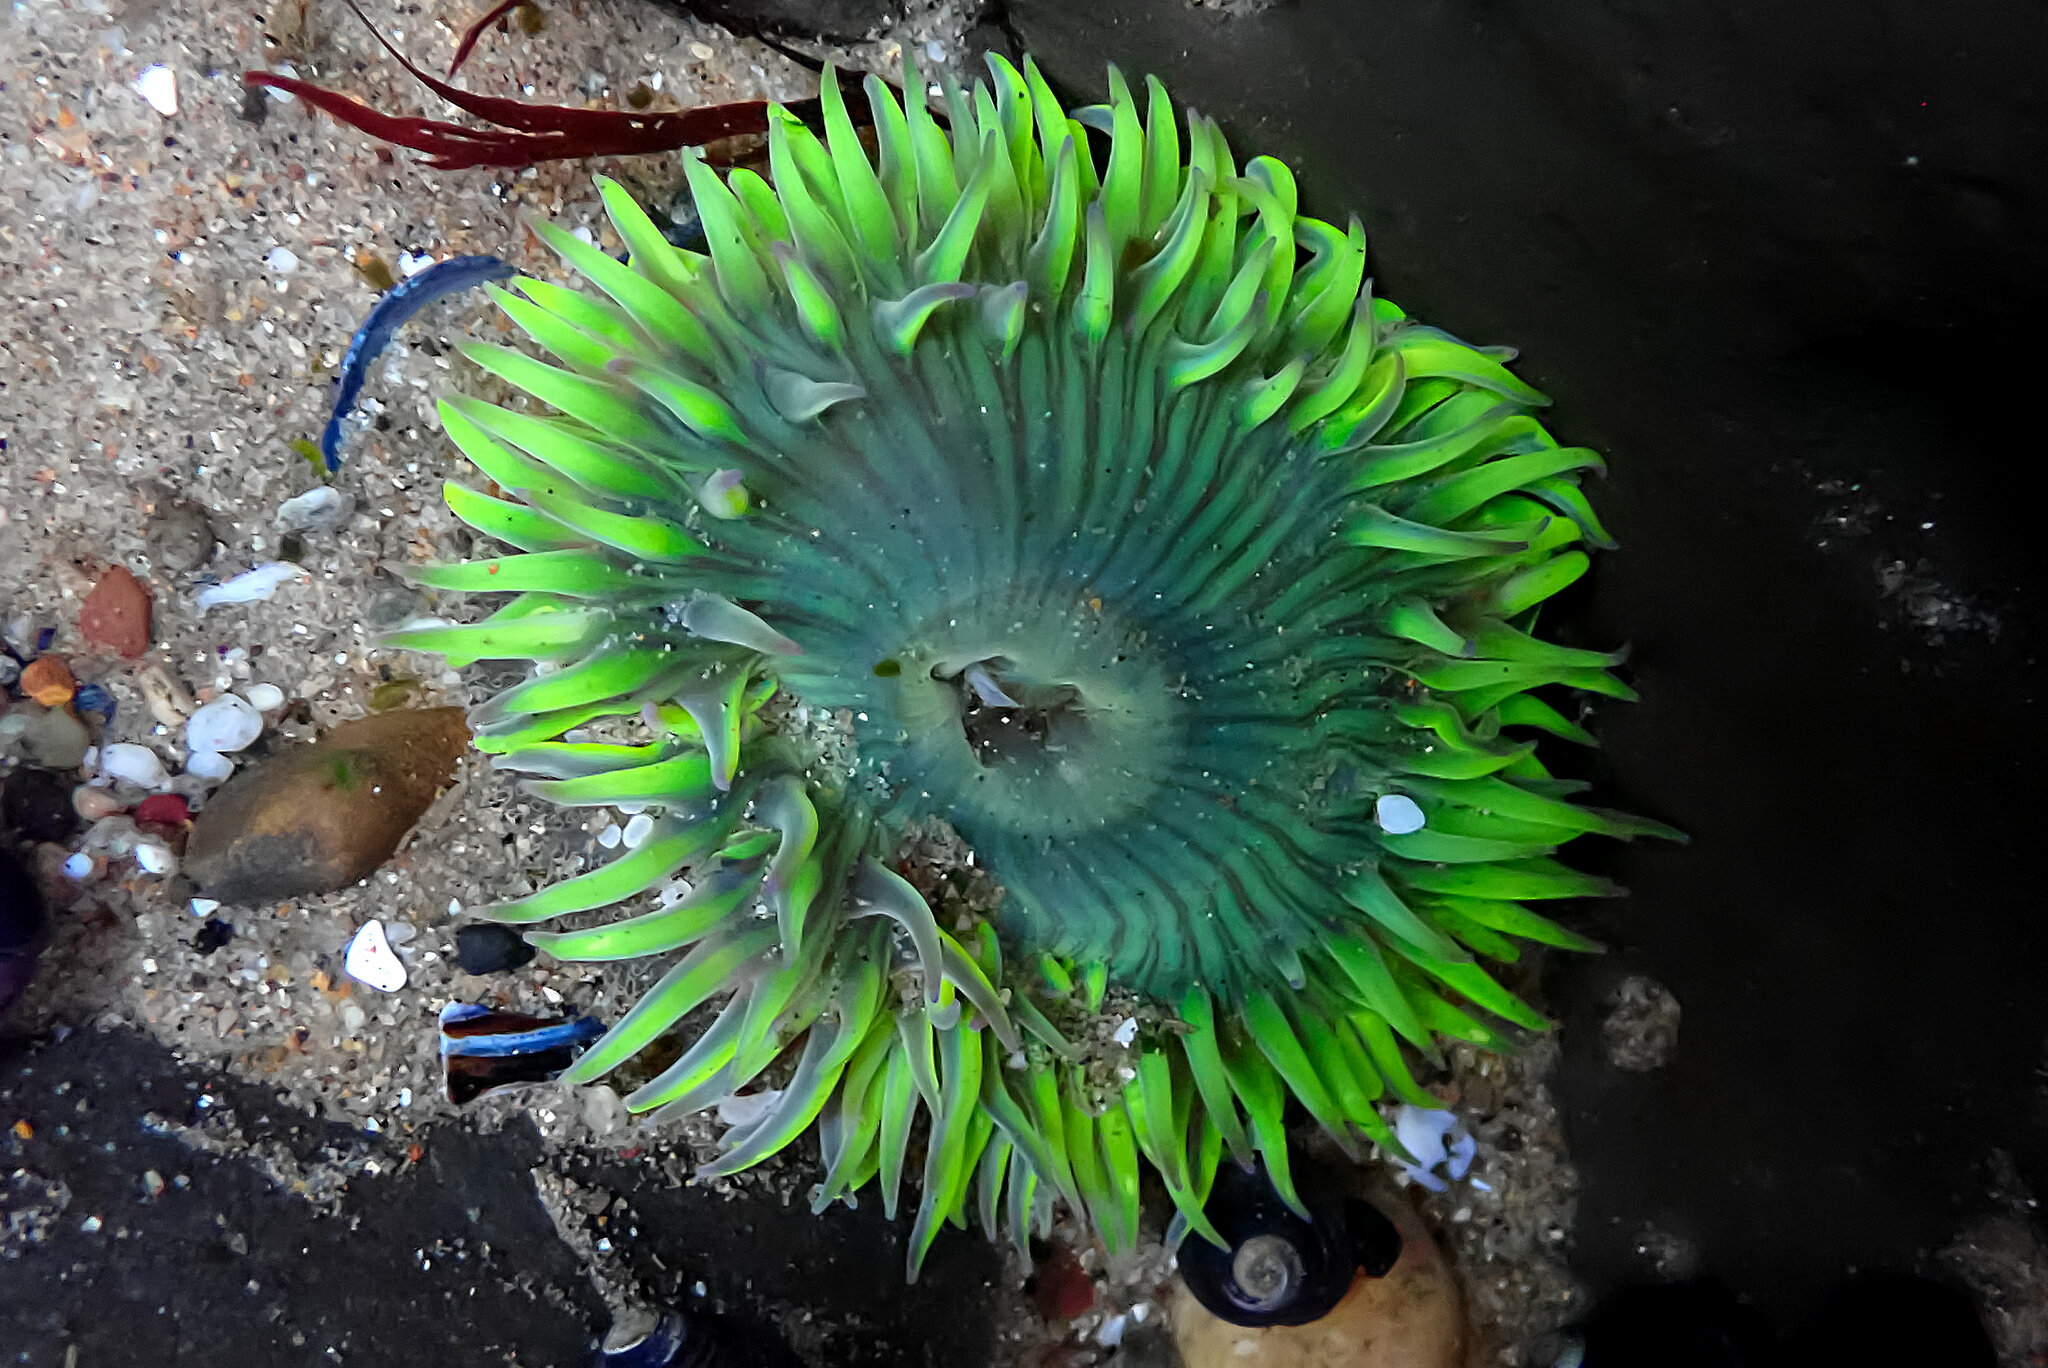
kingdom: Animalia
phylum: Cnidaria
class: Anthozoa
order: Actiniaria
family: Actiniidae
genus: Anthopleura
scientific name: Anthopleura sola
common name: Sun anemone
